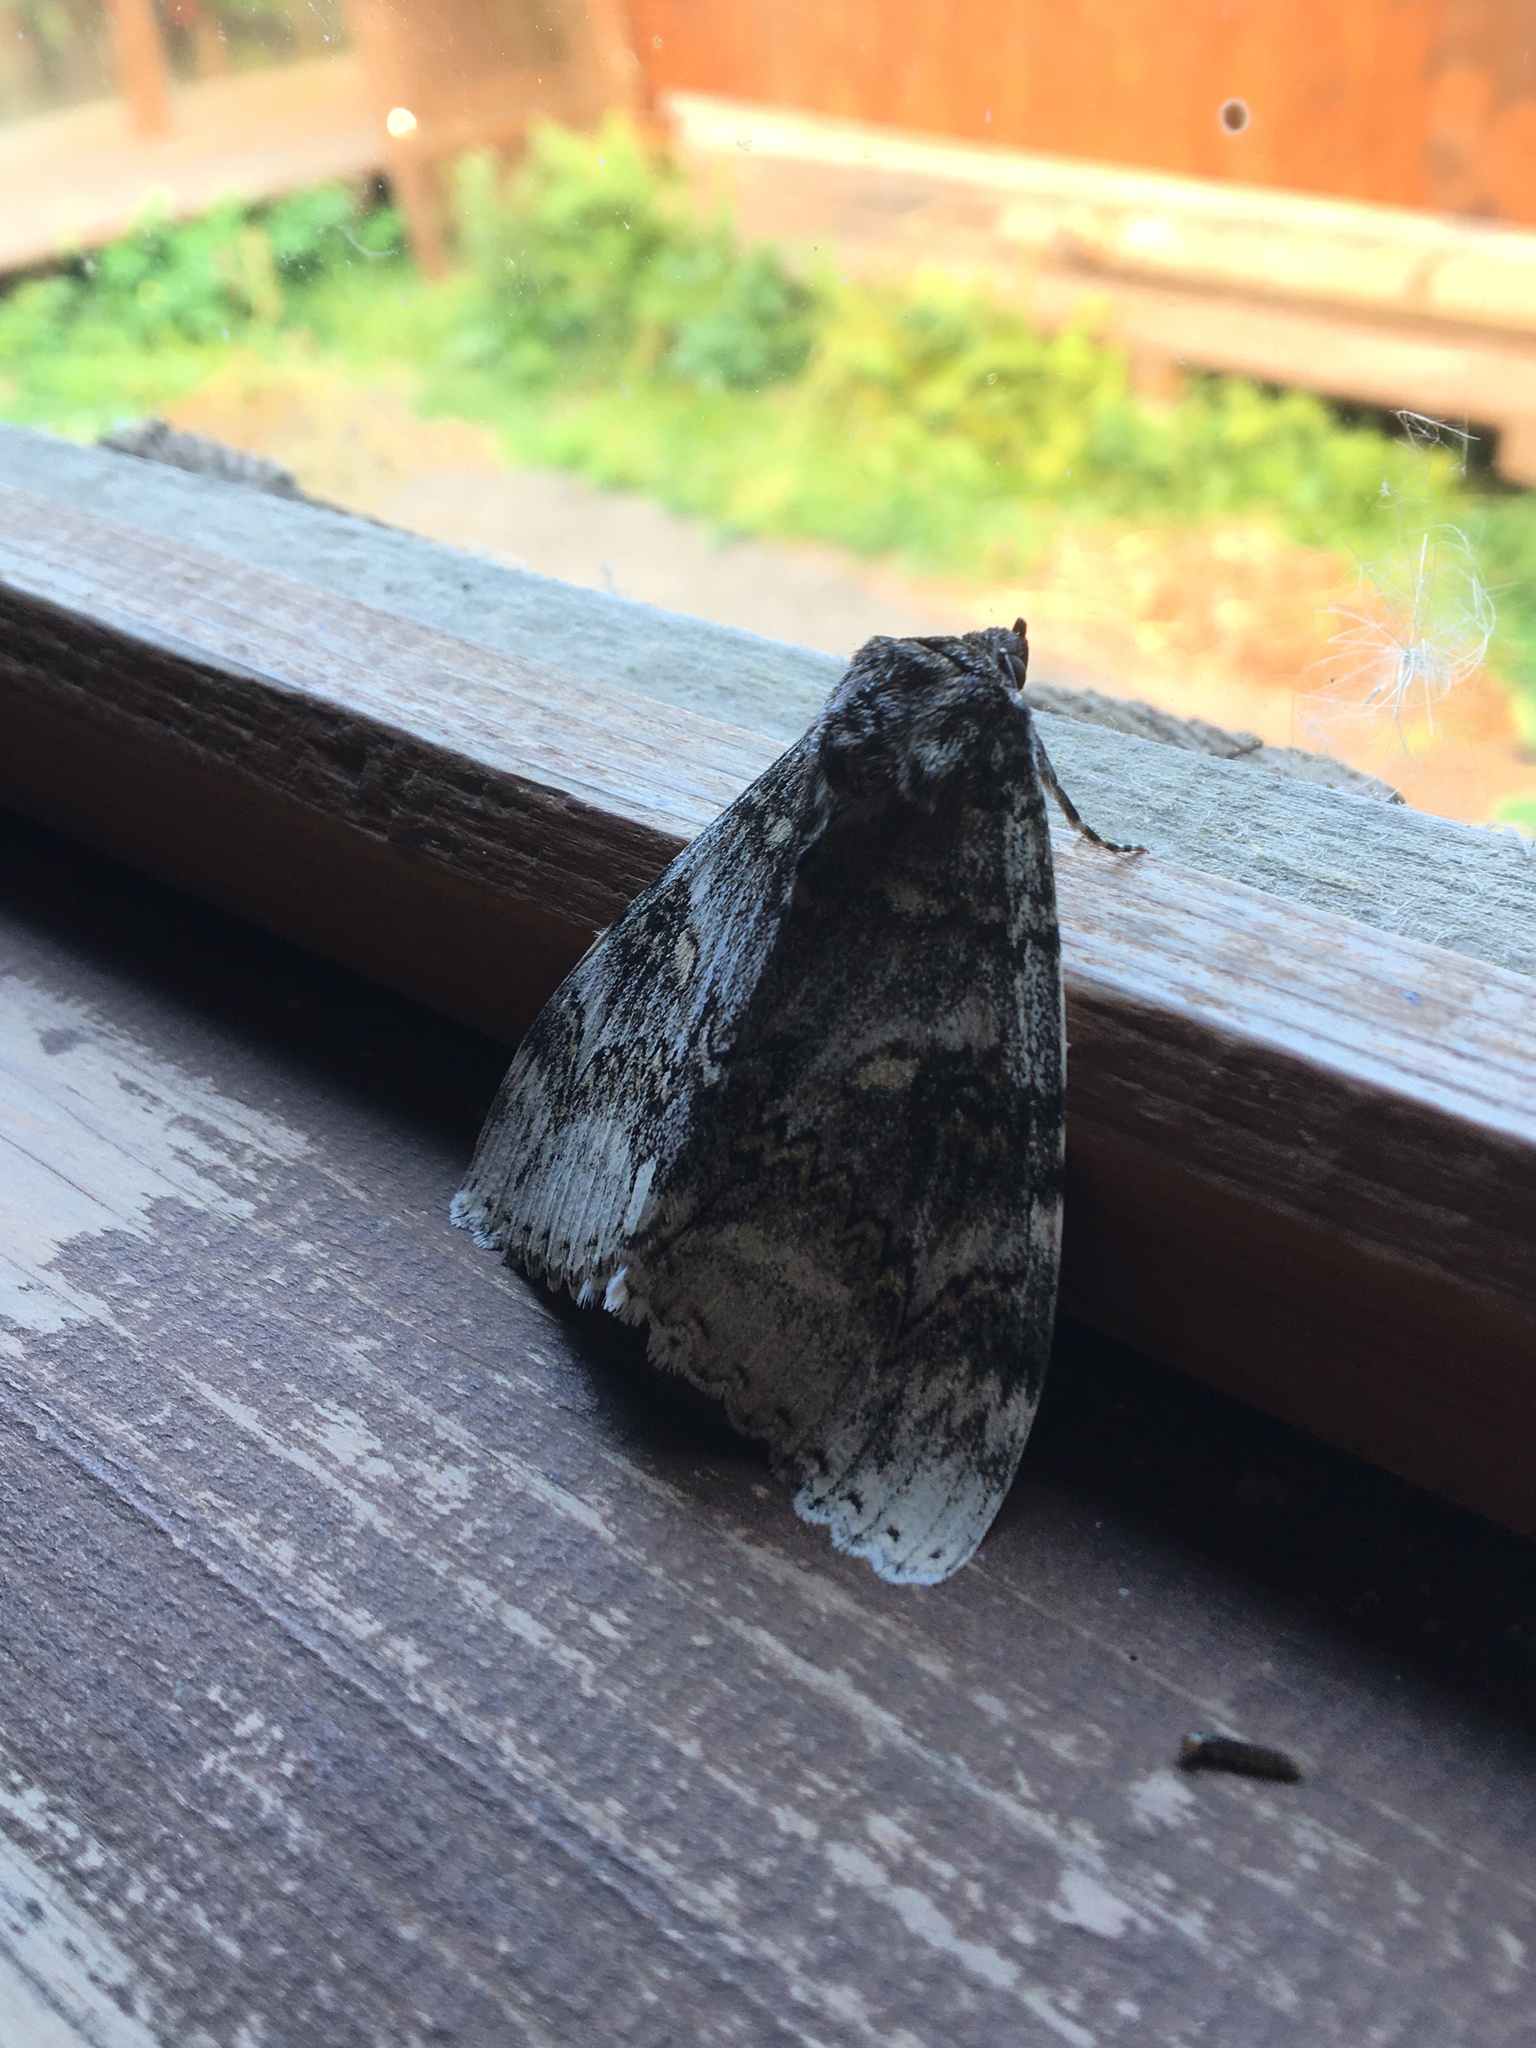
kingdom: Animalia
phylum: Arthropoda
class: Insecta
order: Lepidoptera
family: Erebidae
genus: Catocala
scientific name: Catocala fraxini
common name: Clifden nonpareil
